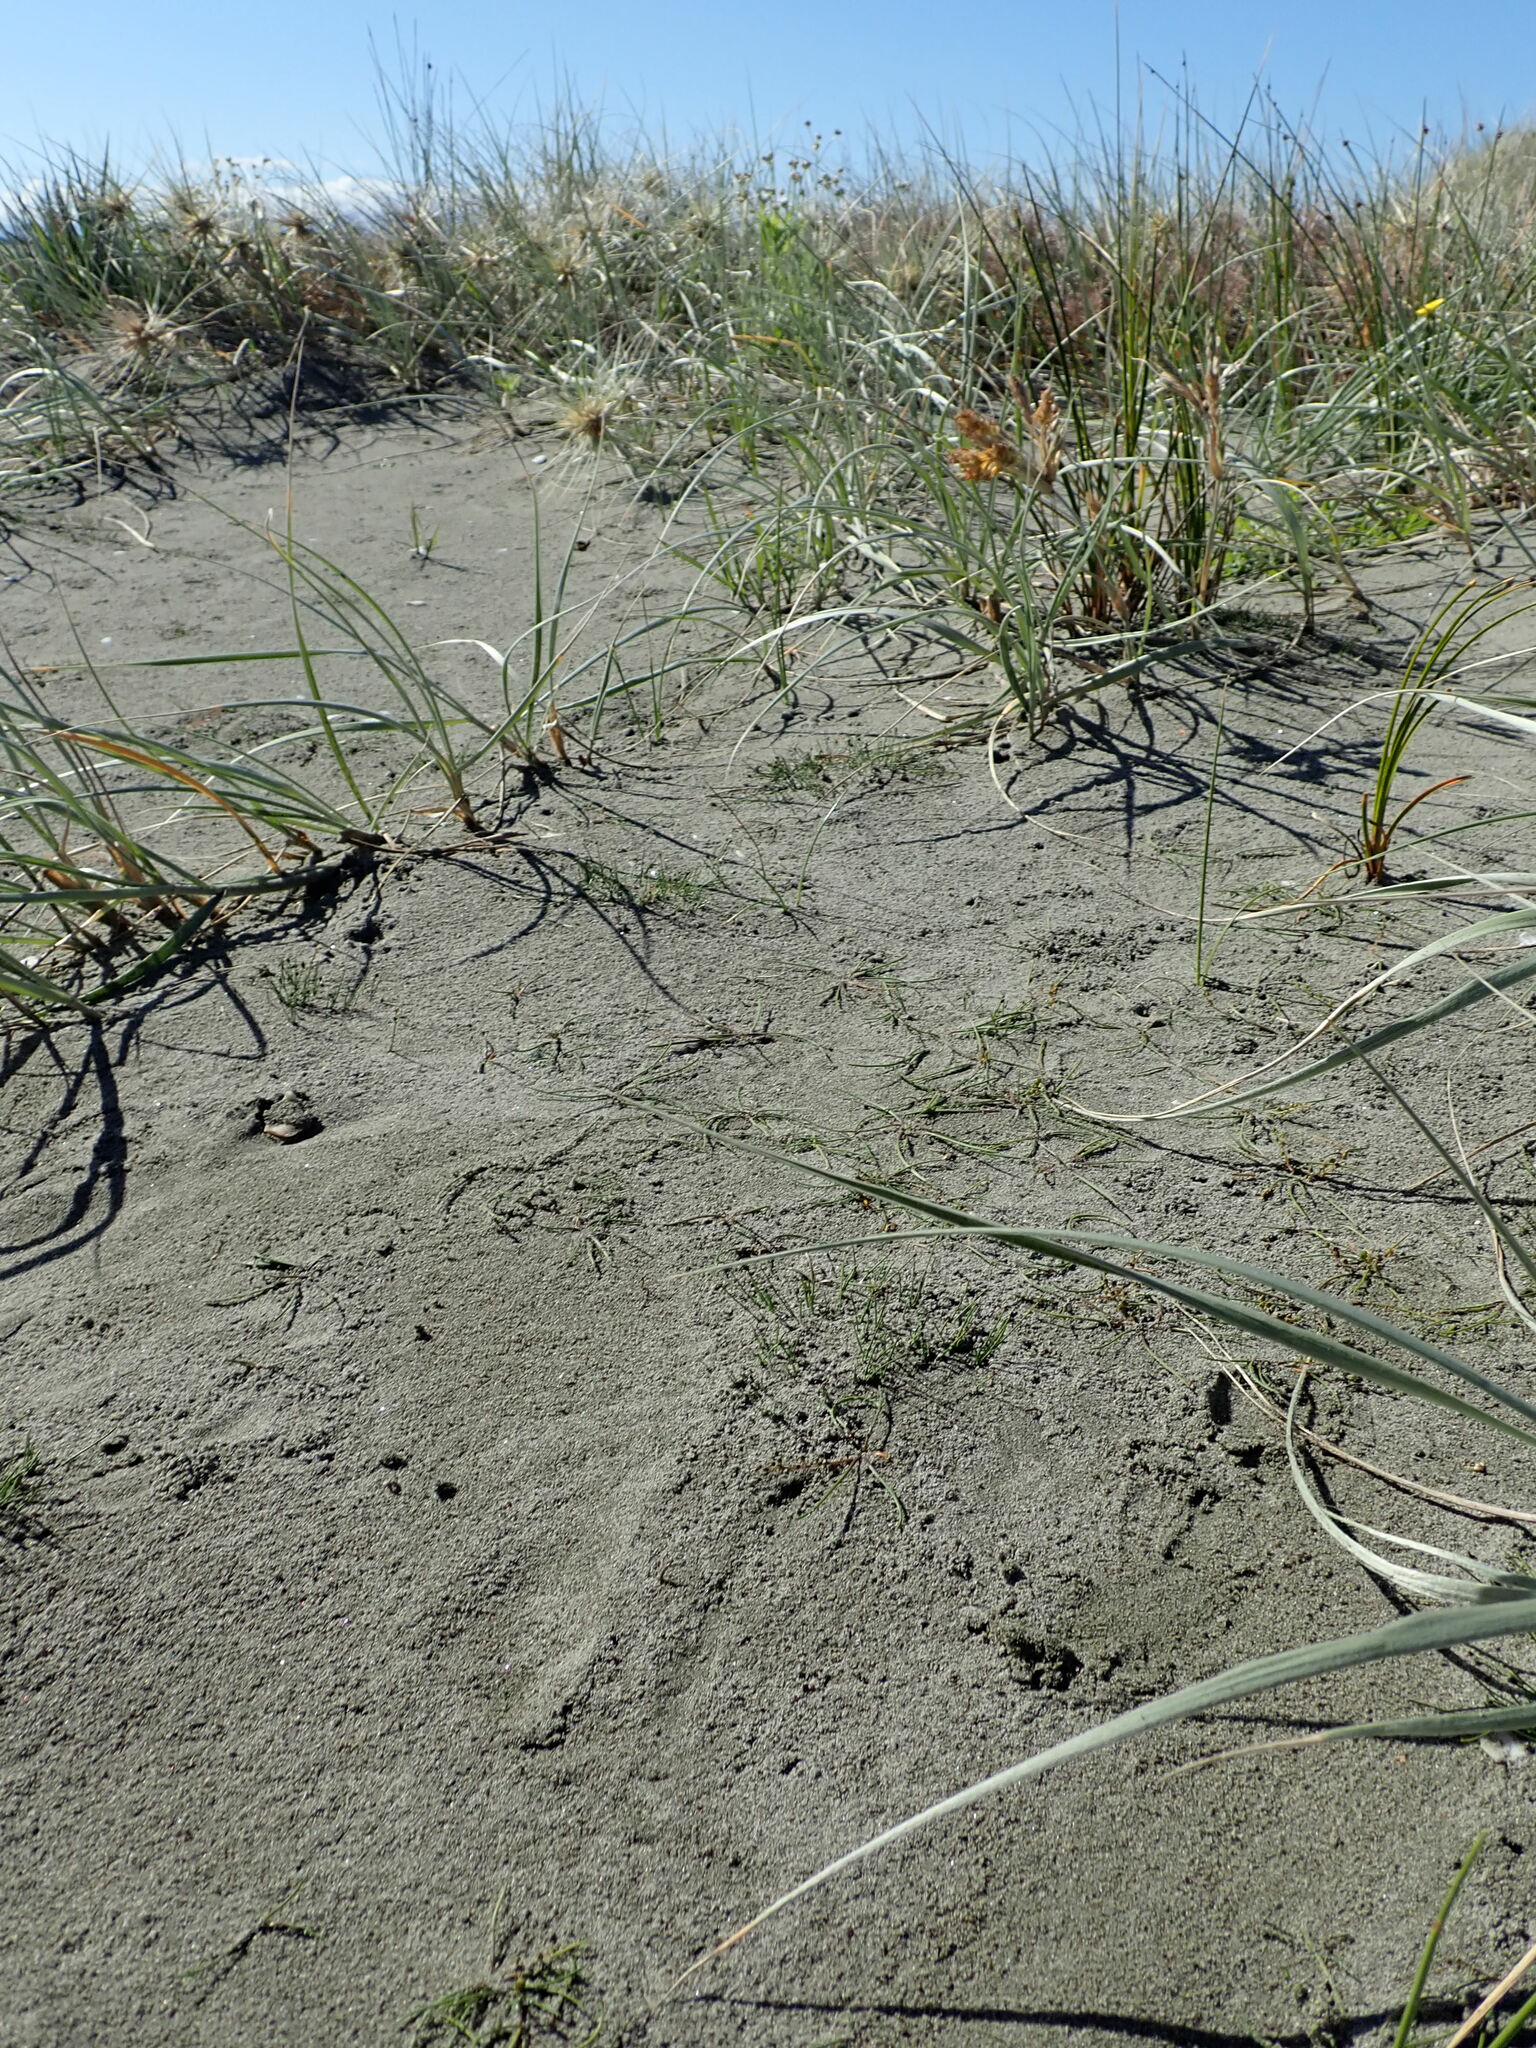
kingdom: Plantae
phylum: Tracheophyta
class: Liliopsida
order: Alismatales
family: Juncaginaceae
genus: Triglochin
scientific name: Triglochin striata
